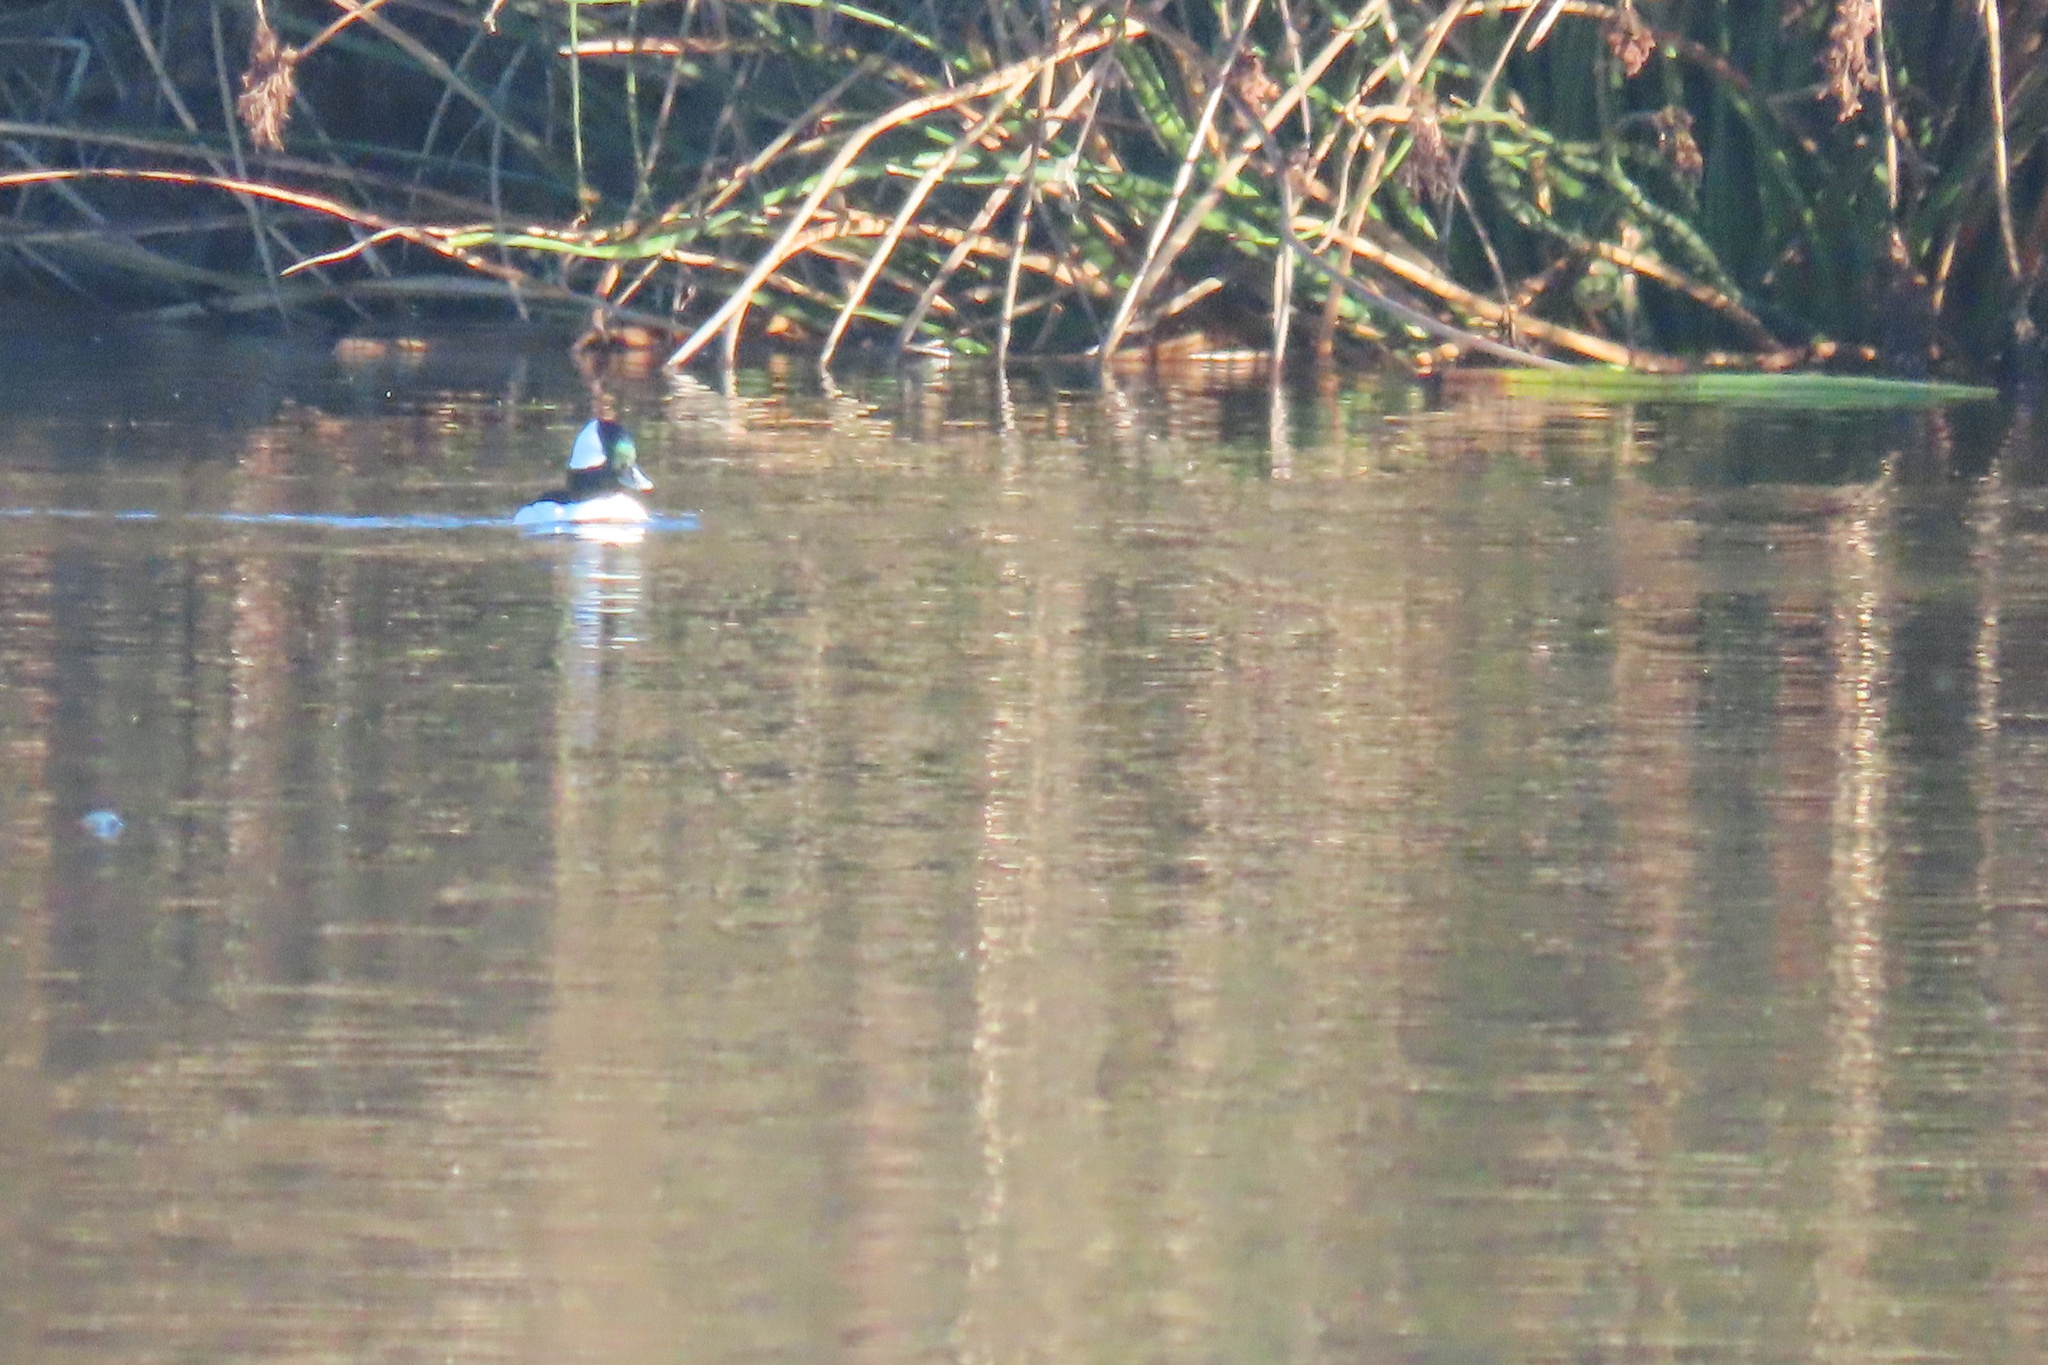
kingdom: Animalia
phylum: Chordata
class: Aves
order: Anseriformes
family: Anatidae
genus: Bucephala
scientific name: Bucephala albeola
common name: Bufflehead
